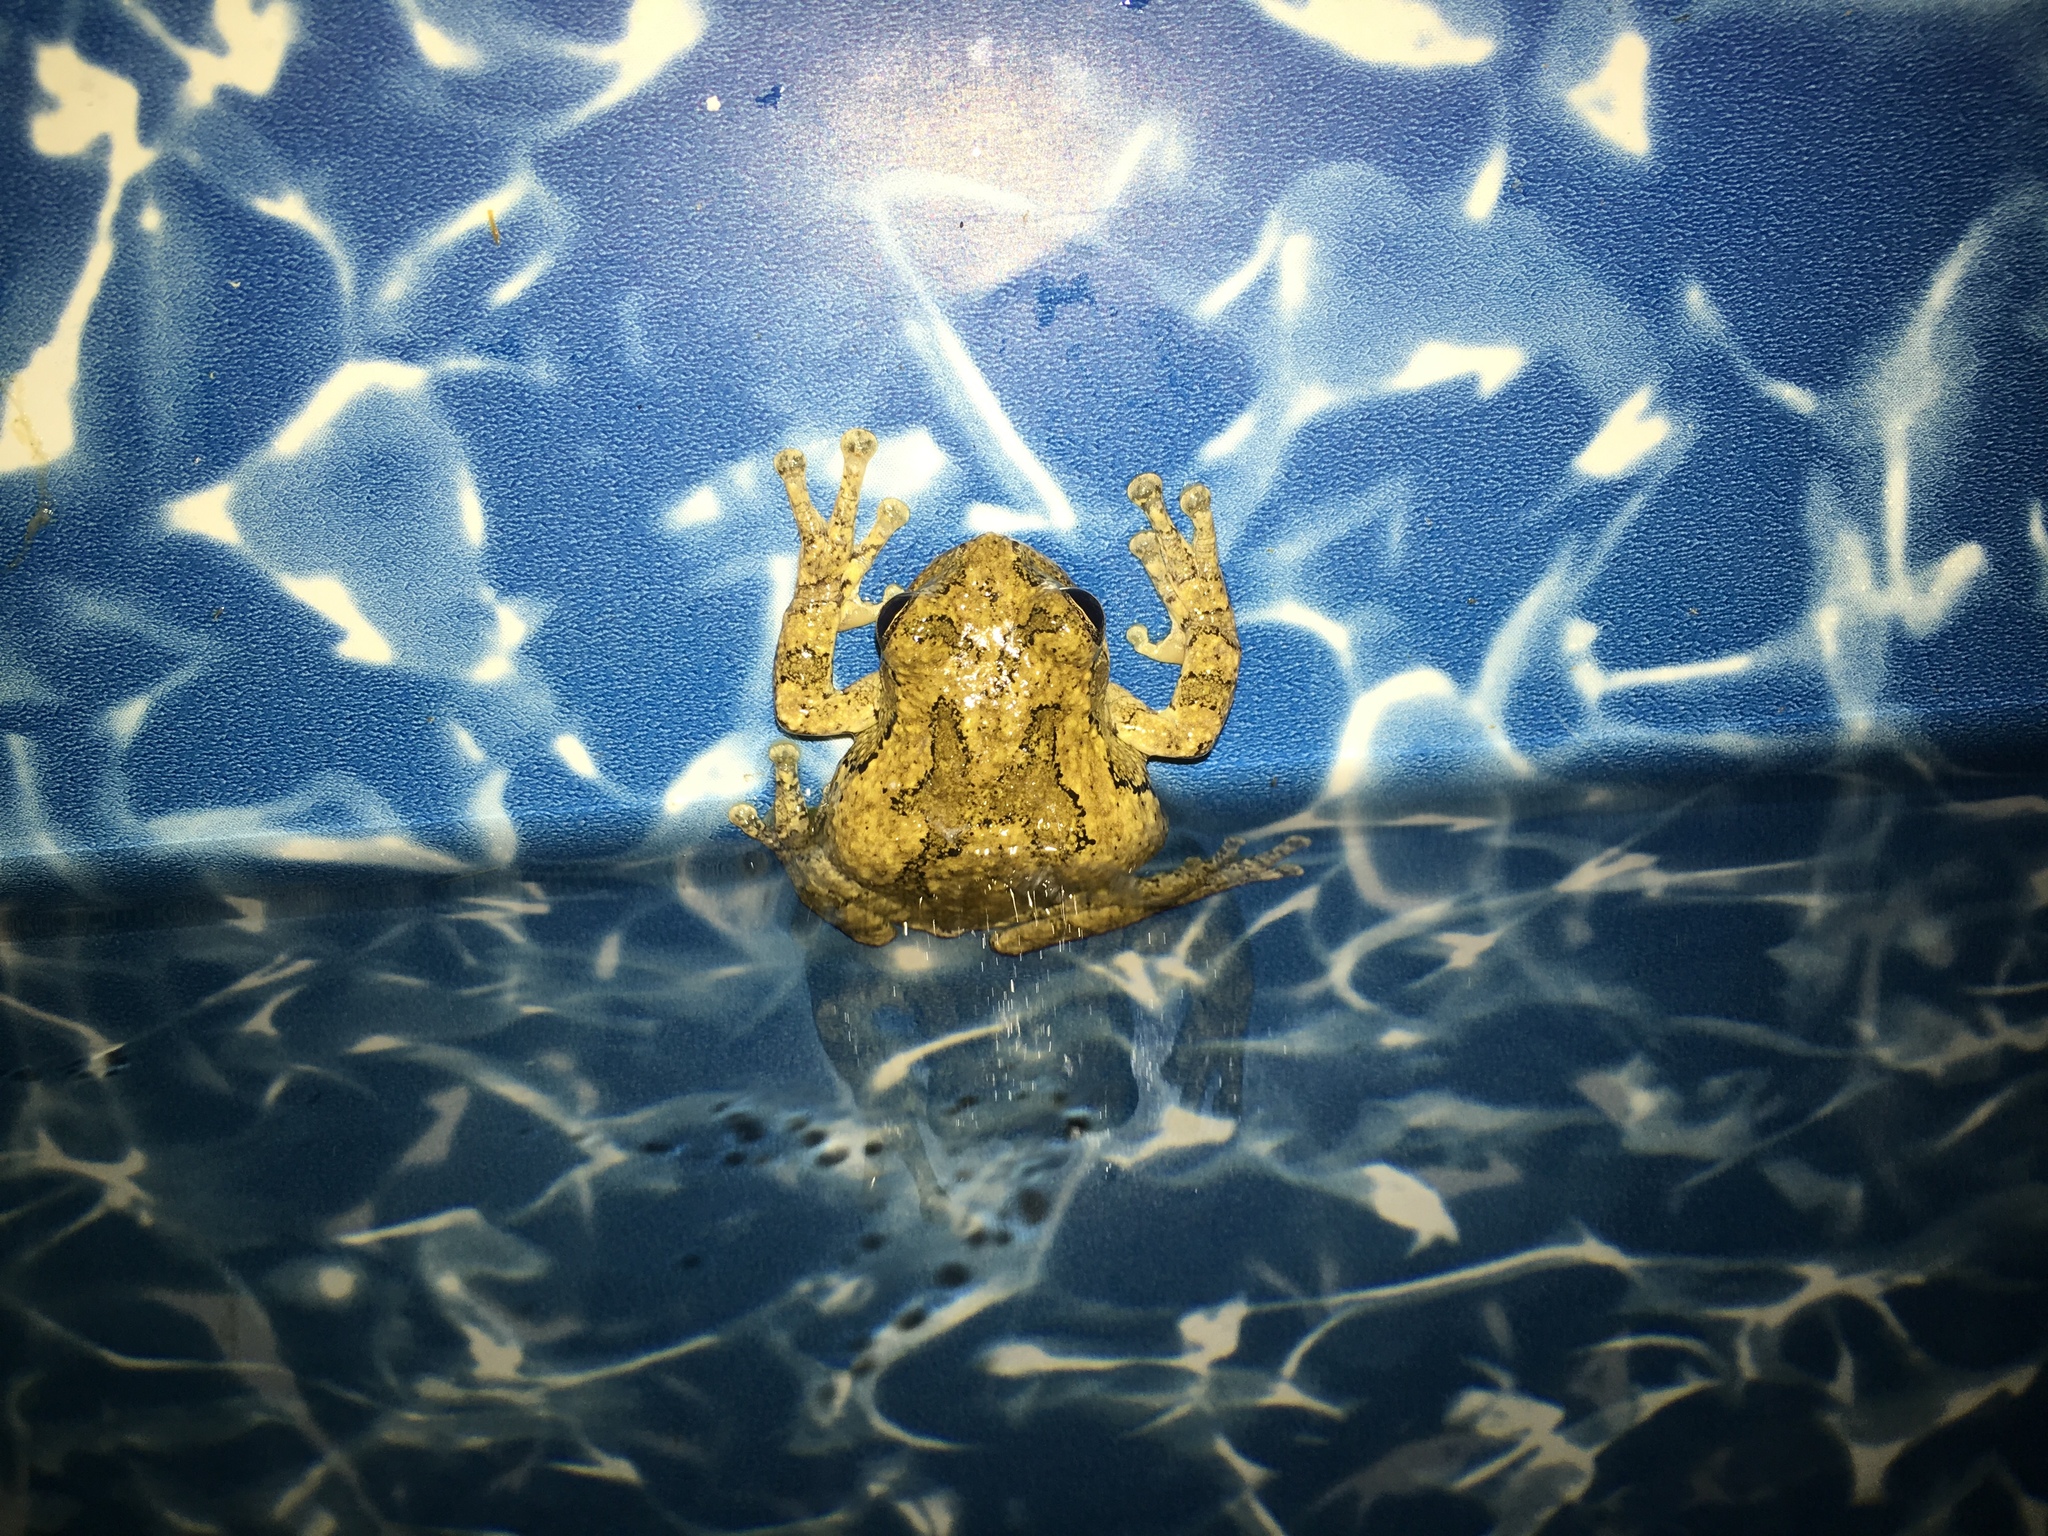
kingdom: Animalia
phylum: Chordata
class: Amphibia
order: Anura
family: Hylidae
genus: Dryophytes
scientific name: Dryophytes chrysoscelis
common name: Cope's gray treefrog
